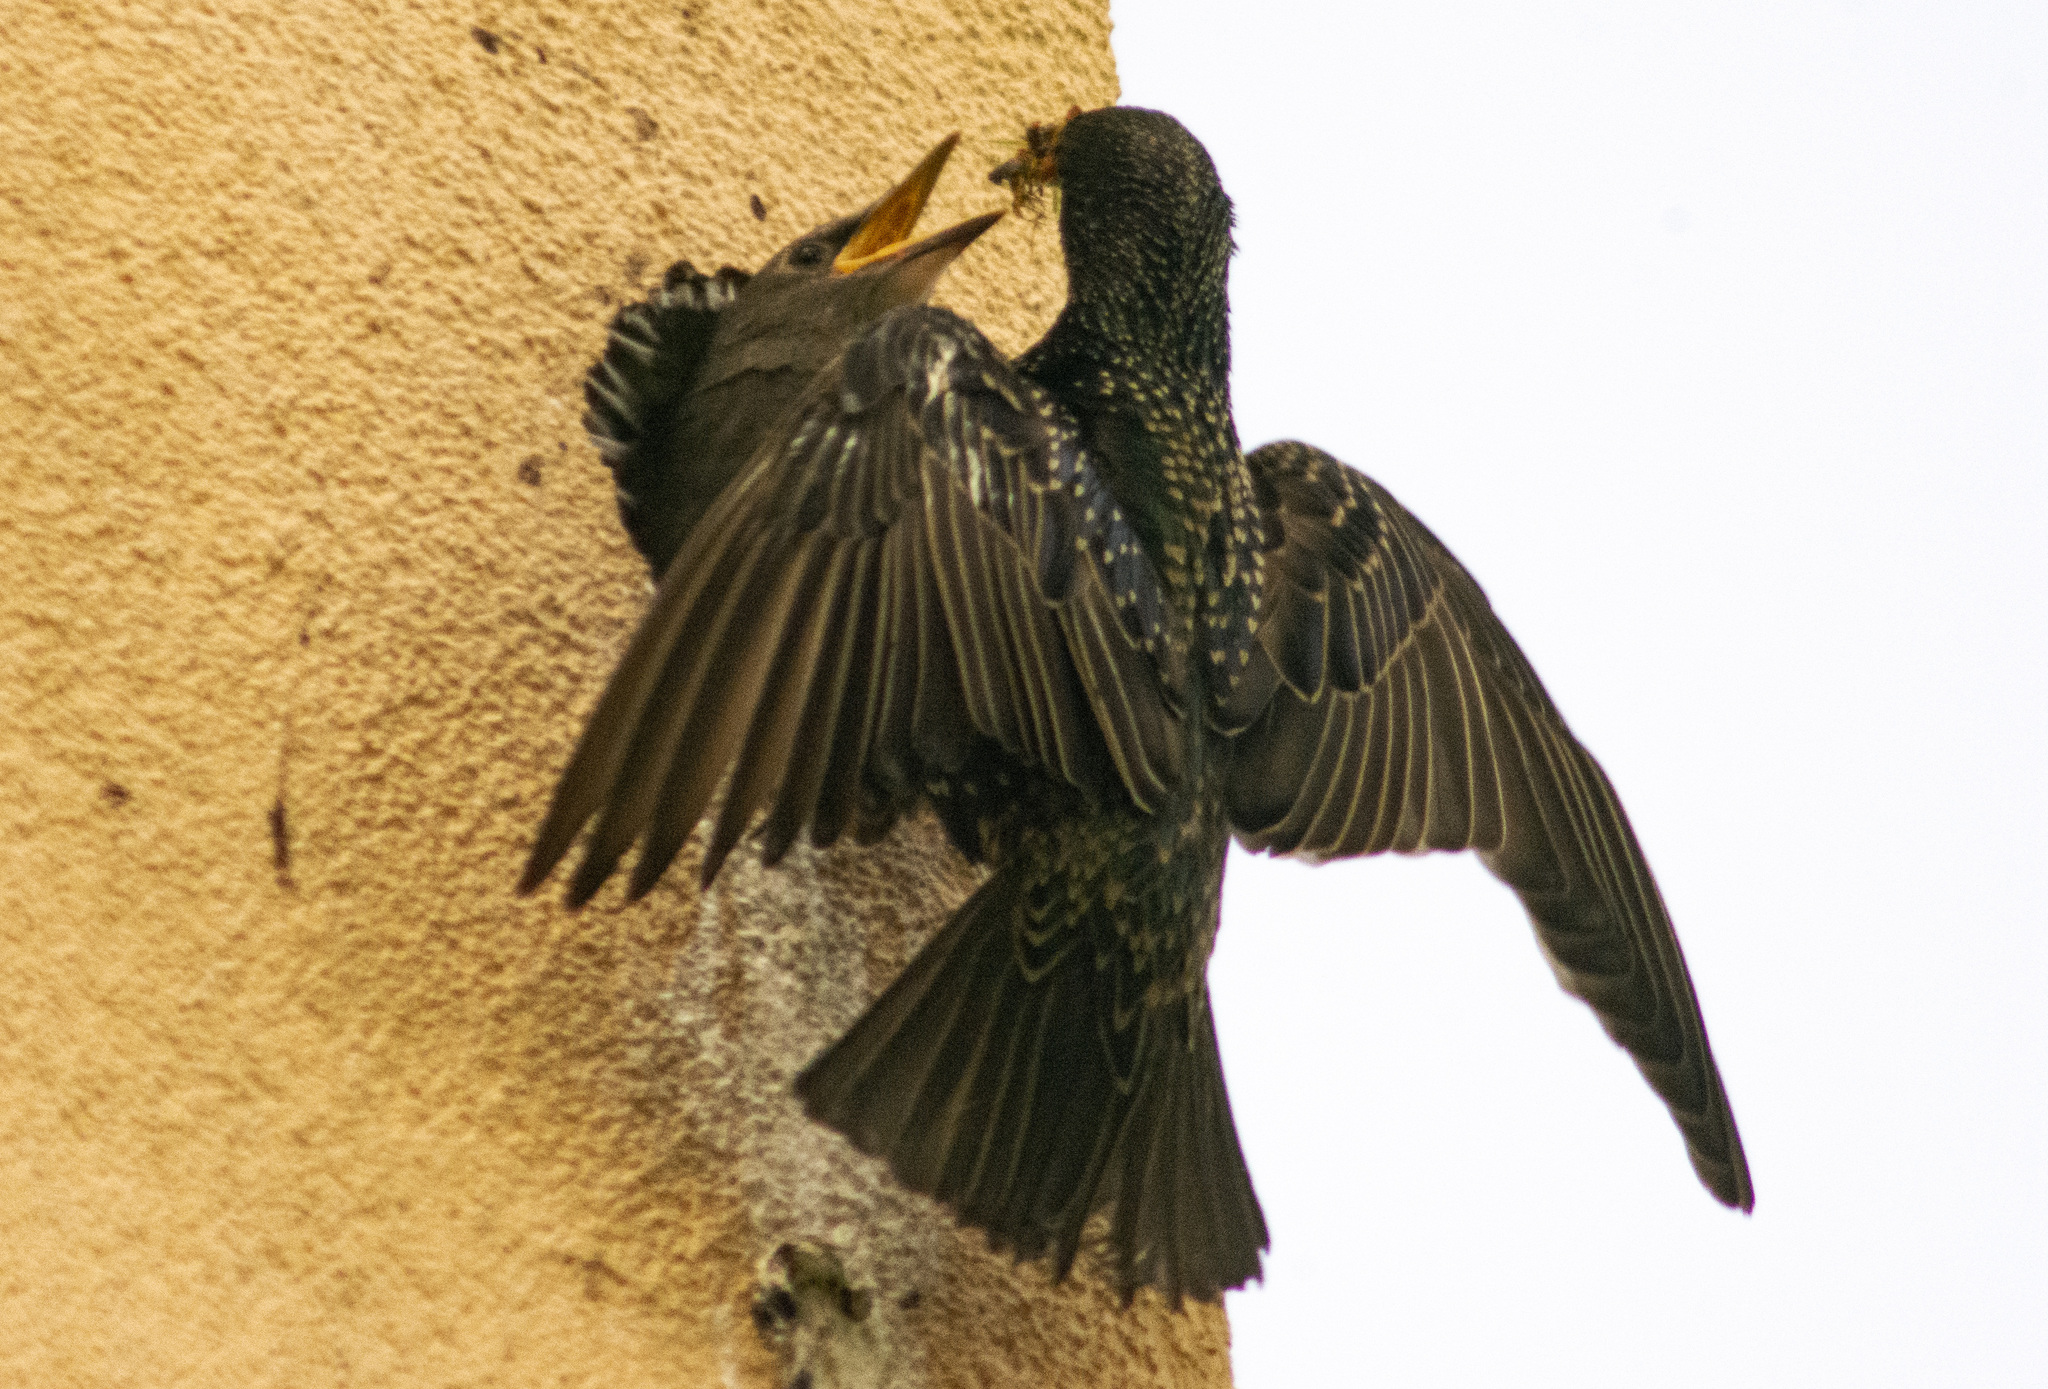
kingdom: Animalia
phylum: Chordata
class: Aves
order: Passeriformes
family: Sturnidae
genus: Sturnus
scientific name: Sturnus vulgaris
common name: Common starling
